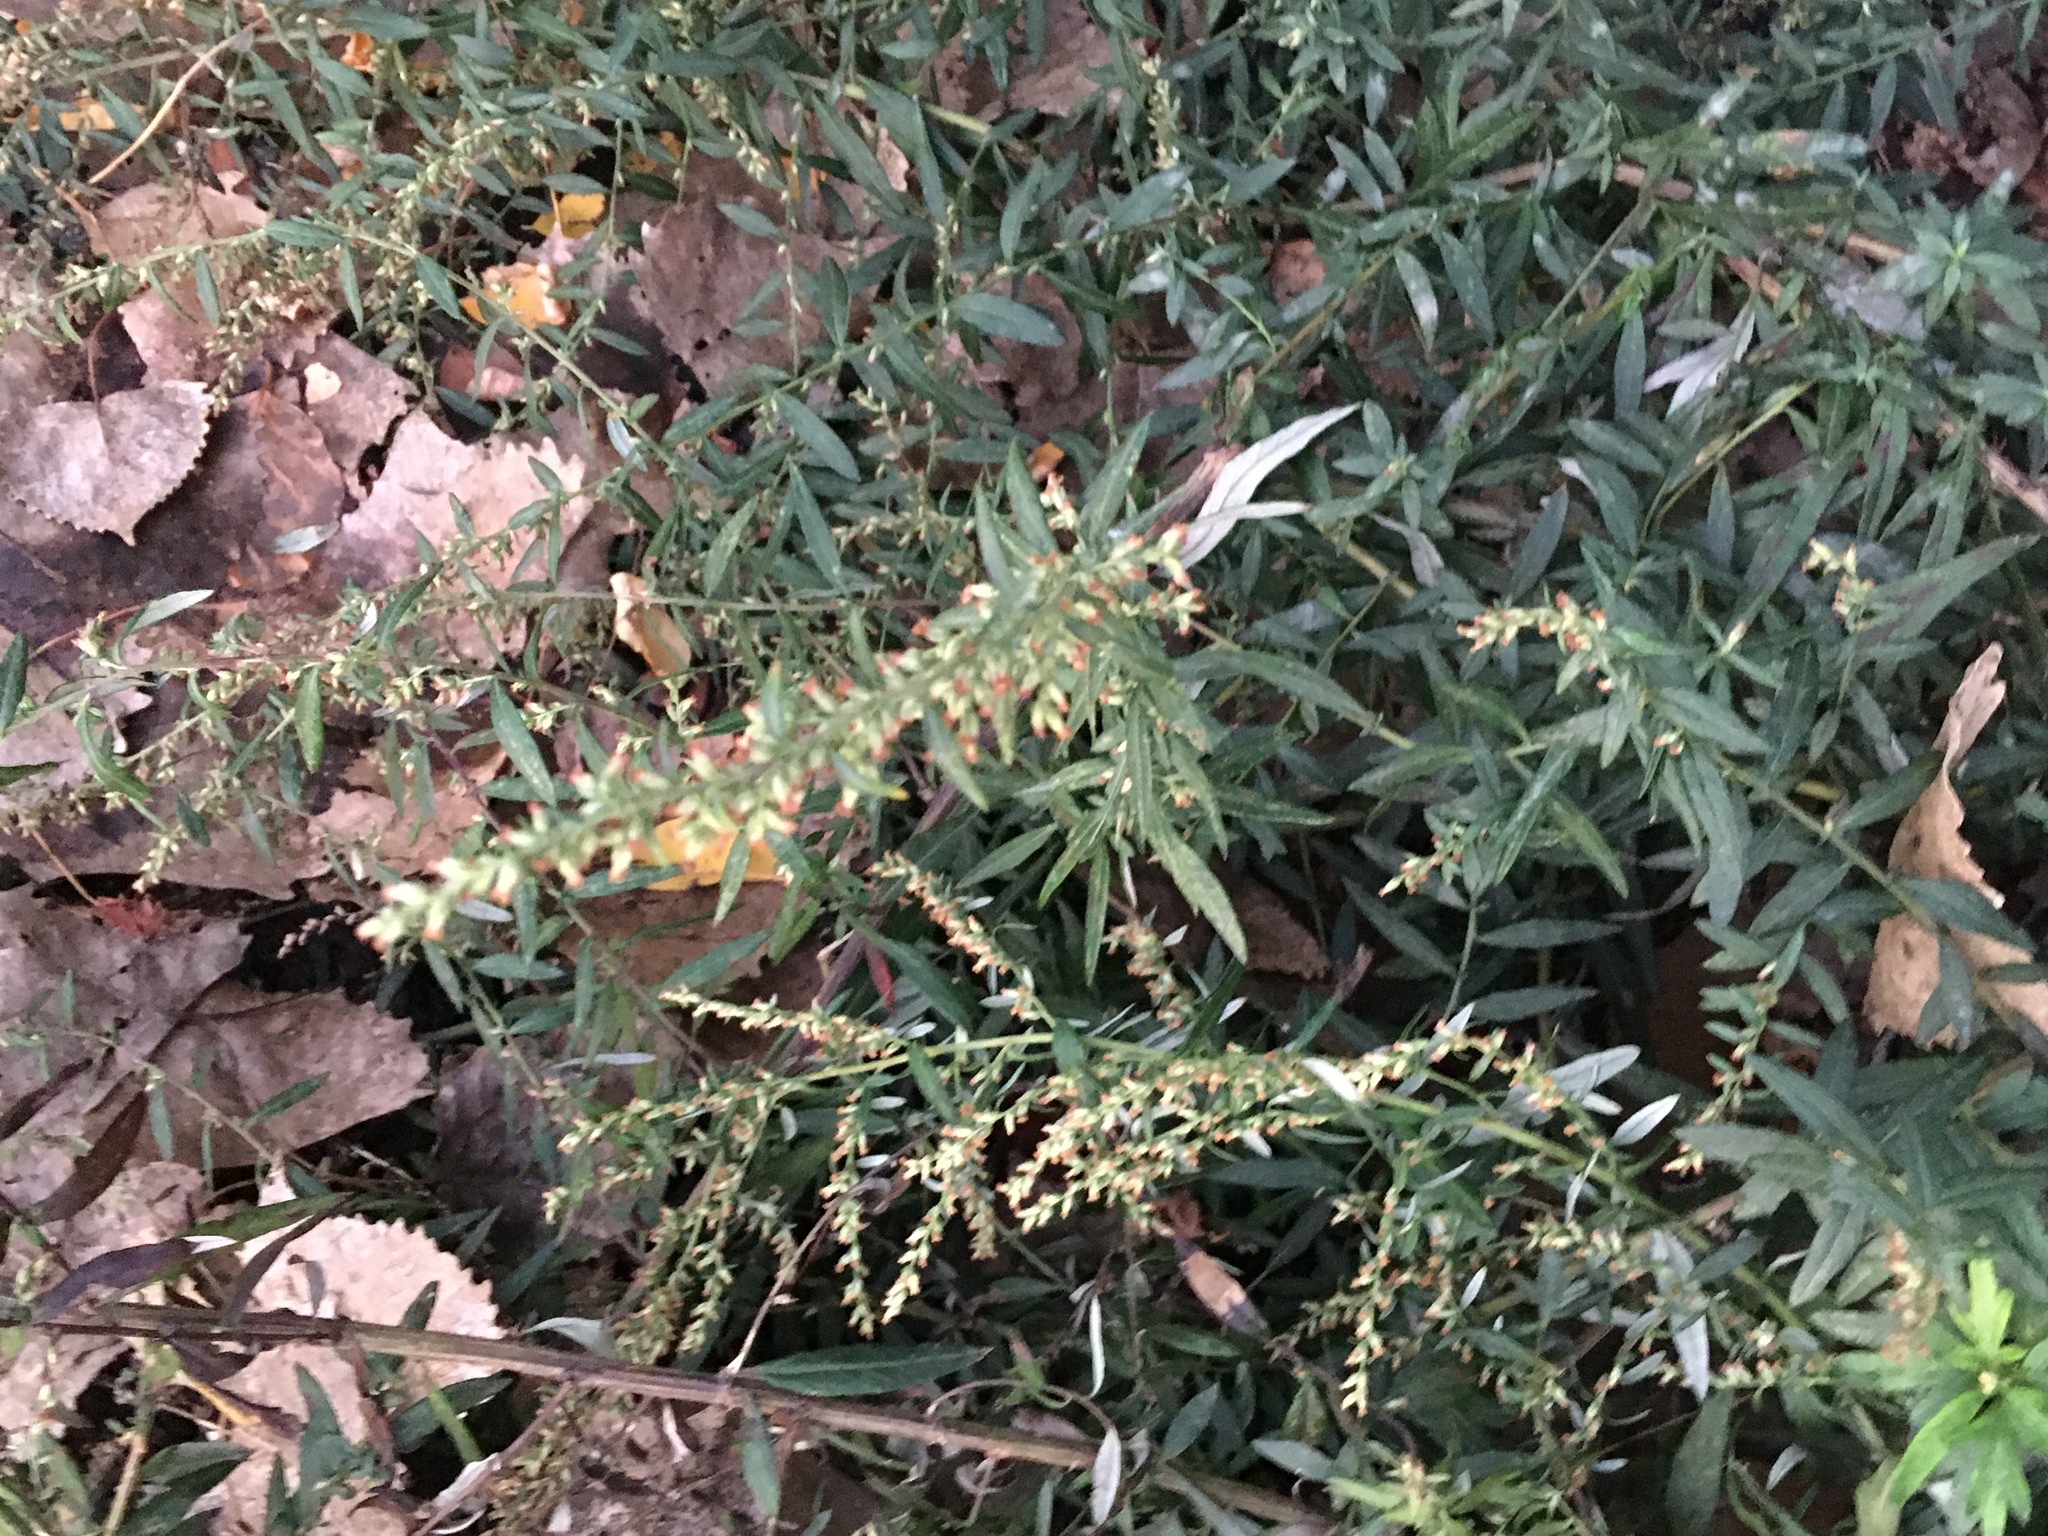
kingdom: Plantae
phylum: Tracheophyta
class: Magnoliopsida
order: Asterales
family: Asteraceae
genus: Artemisia
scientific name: Artemisia vulgaris
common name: Mugwort
